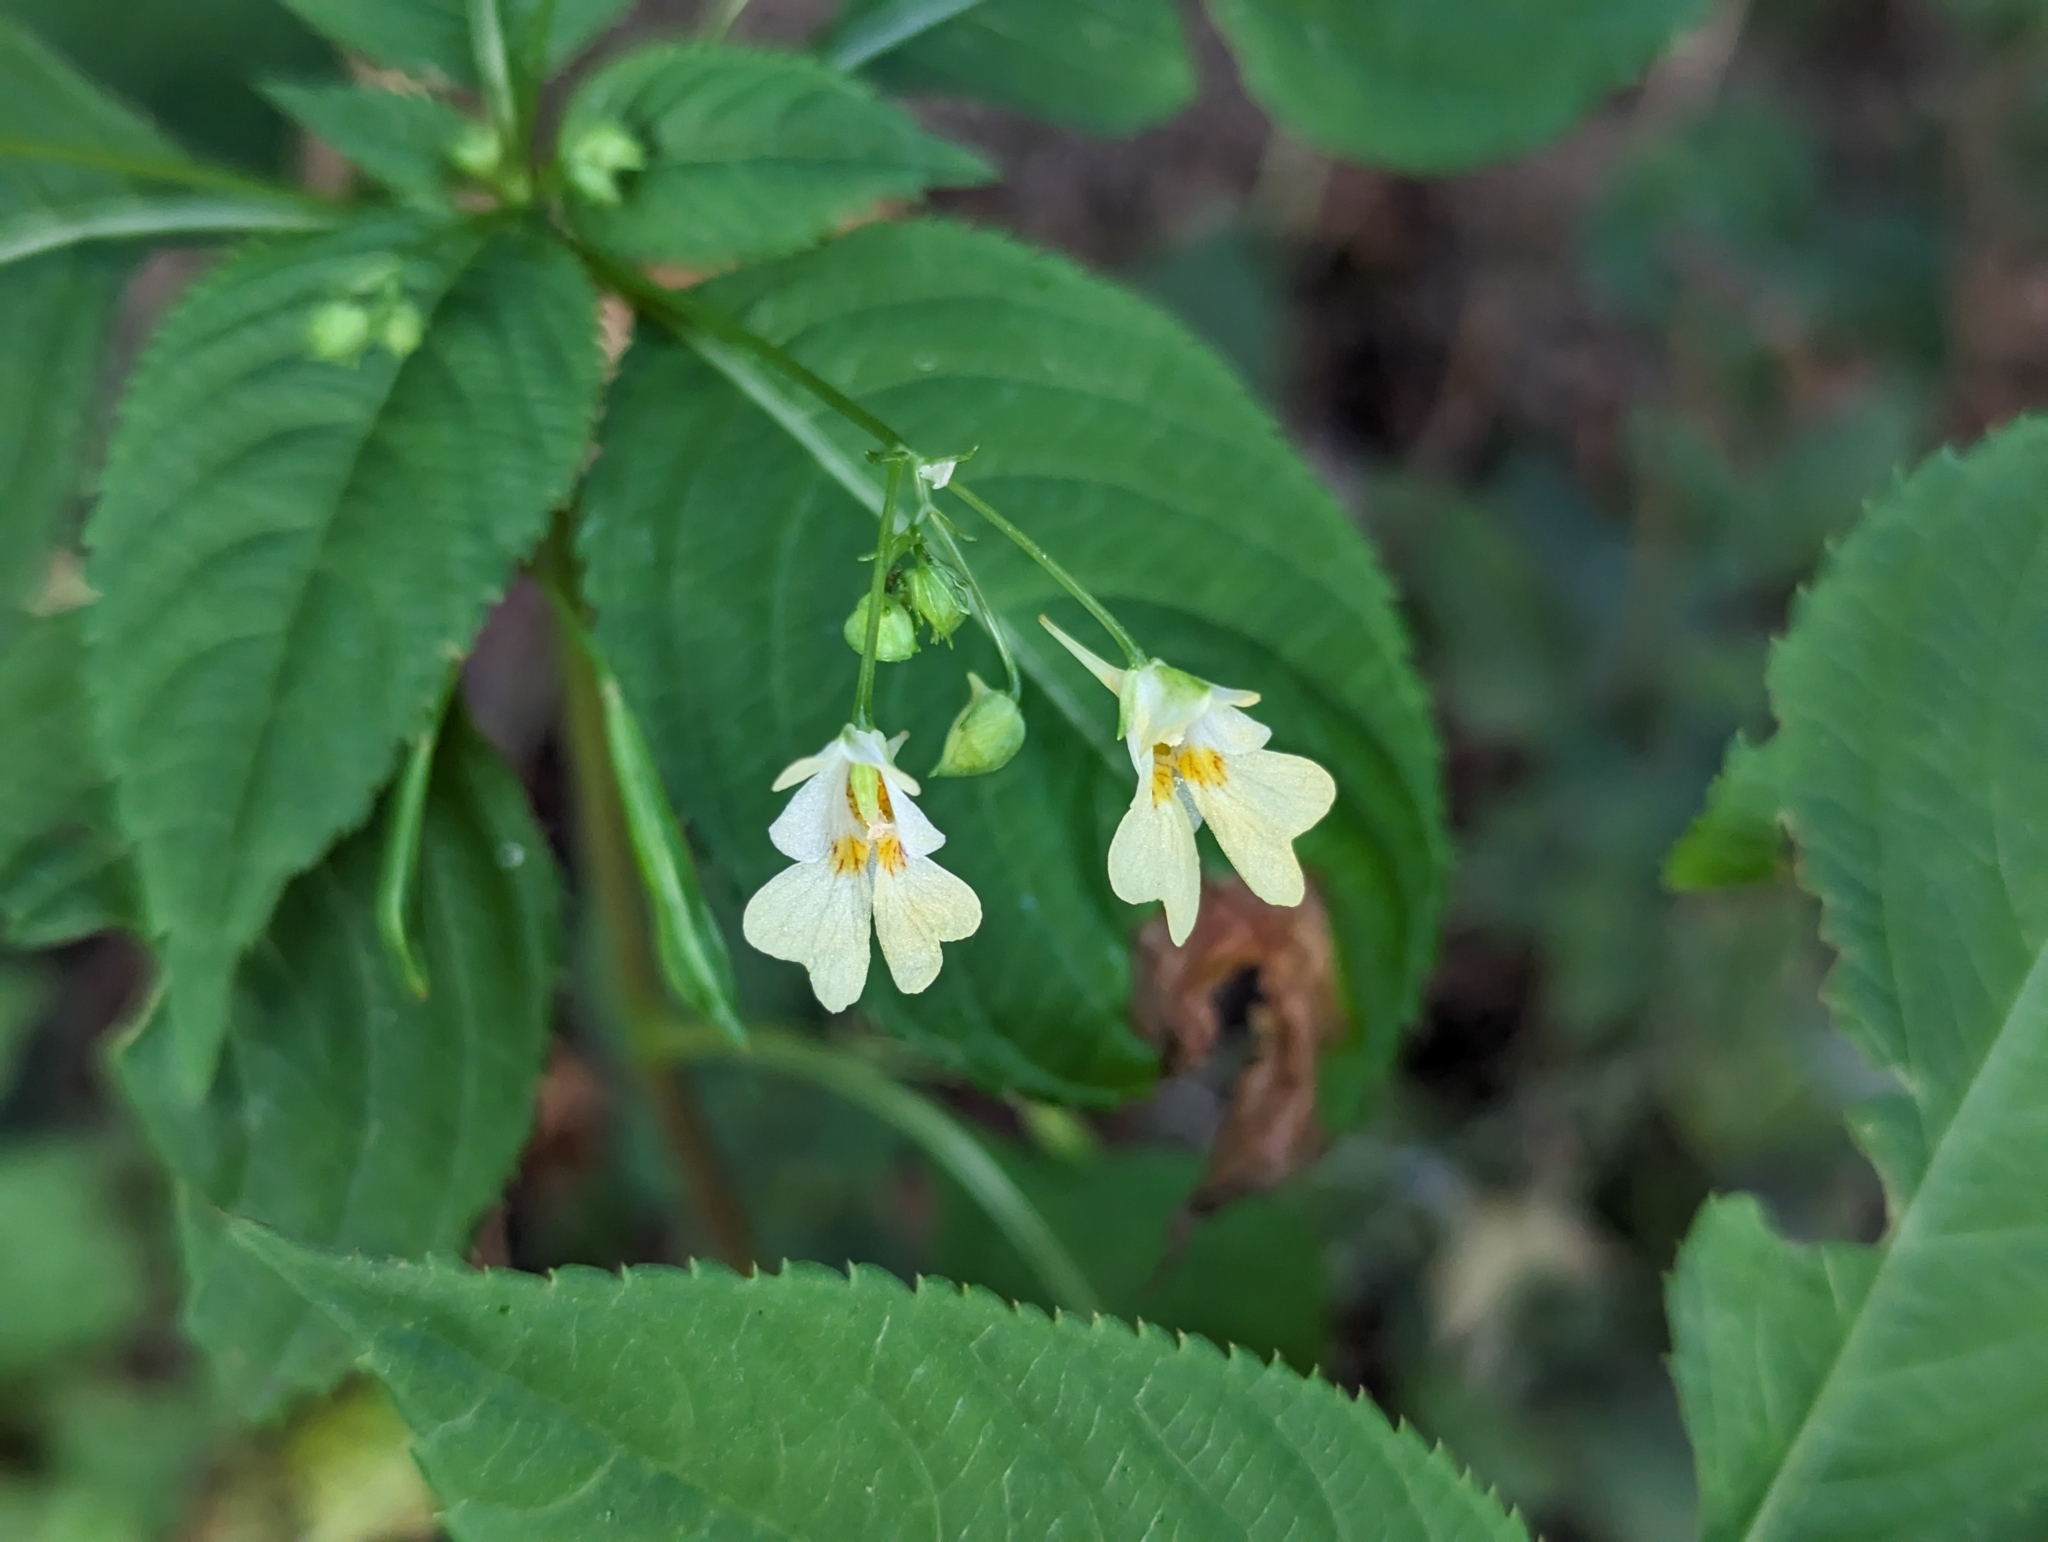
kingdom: Plantae
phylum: Tracheophyta
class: Magnoliopsida
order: Ericales
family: Balsaminaceae
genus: Impatiens
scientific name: Impatiens parviflora
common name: Small balsam
